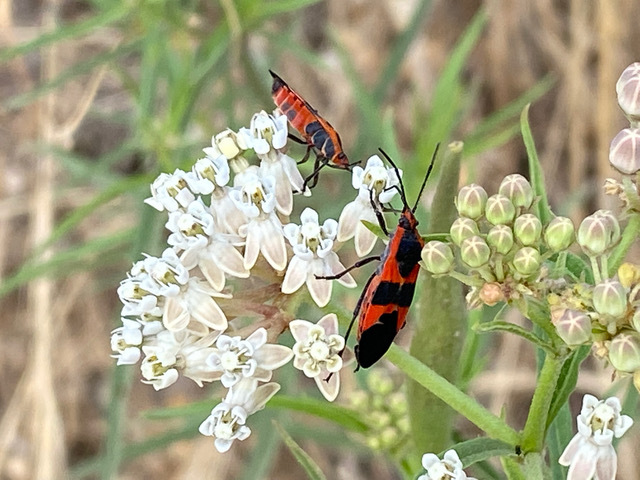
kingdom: Animalia
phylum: Arthropoda
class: Insecta
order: Hemiptera
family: Lygaeidae
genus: Oncopeltus
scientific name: Oncopeltus fasciatus
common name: Large milkweed bug
